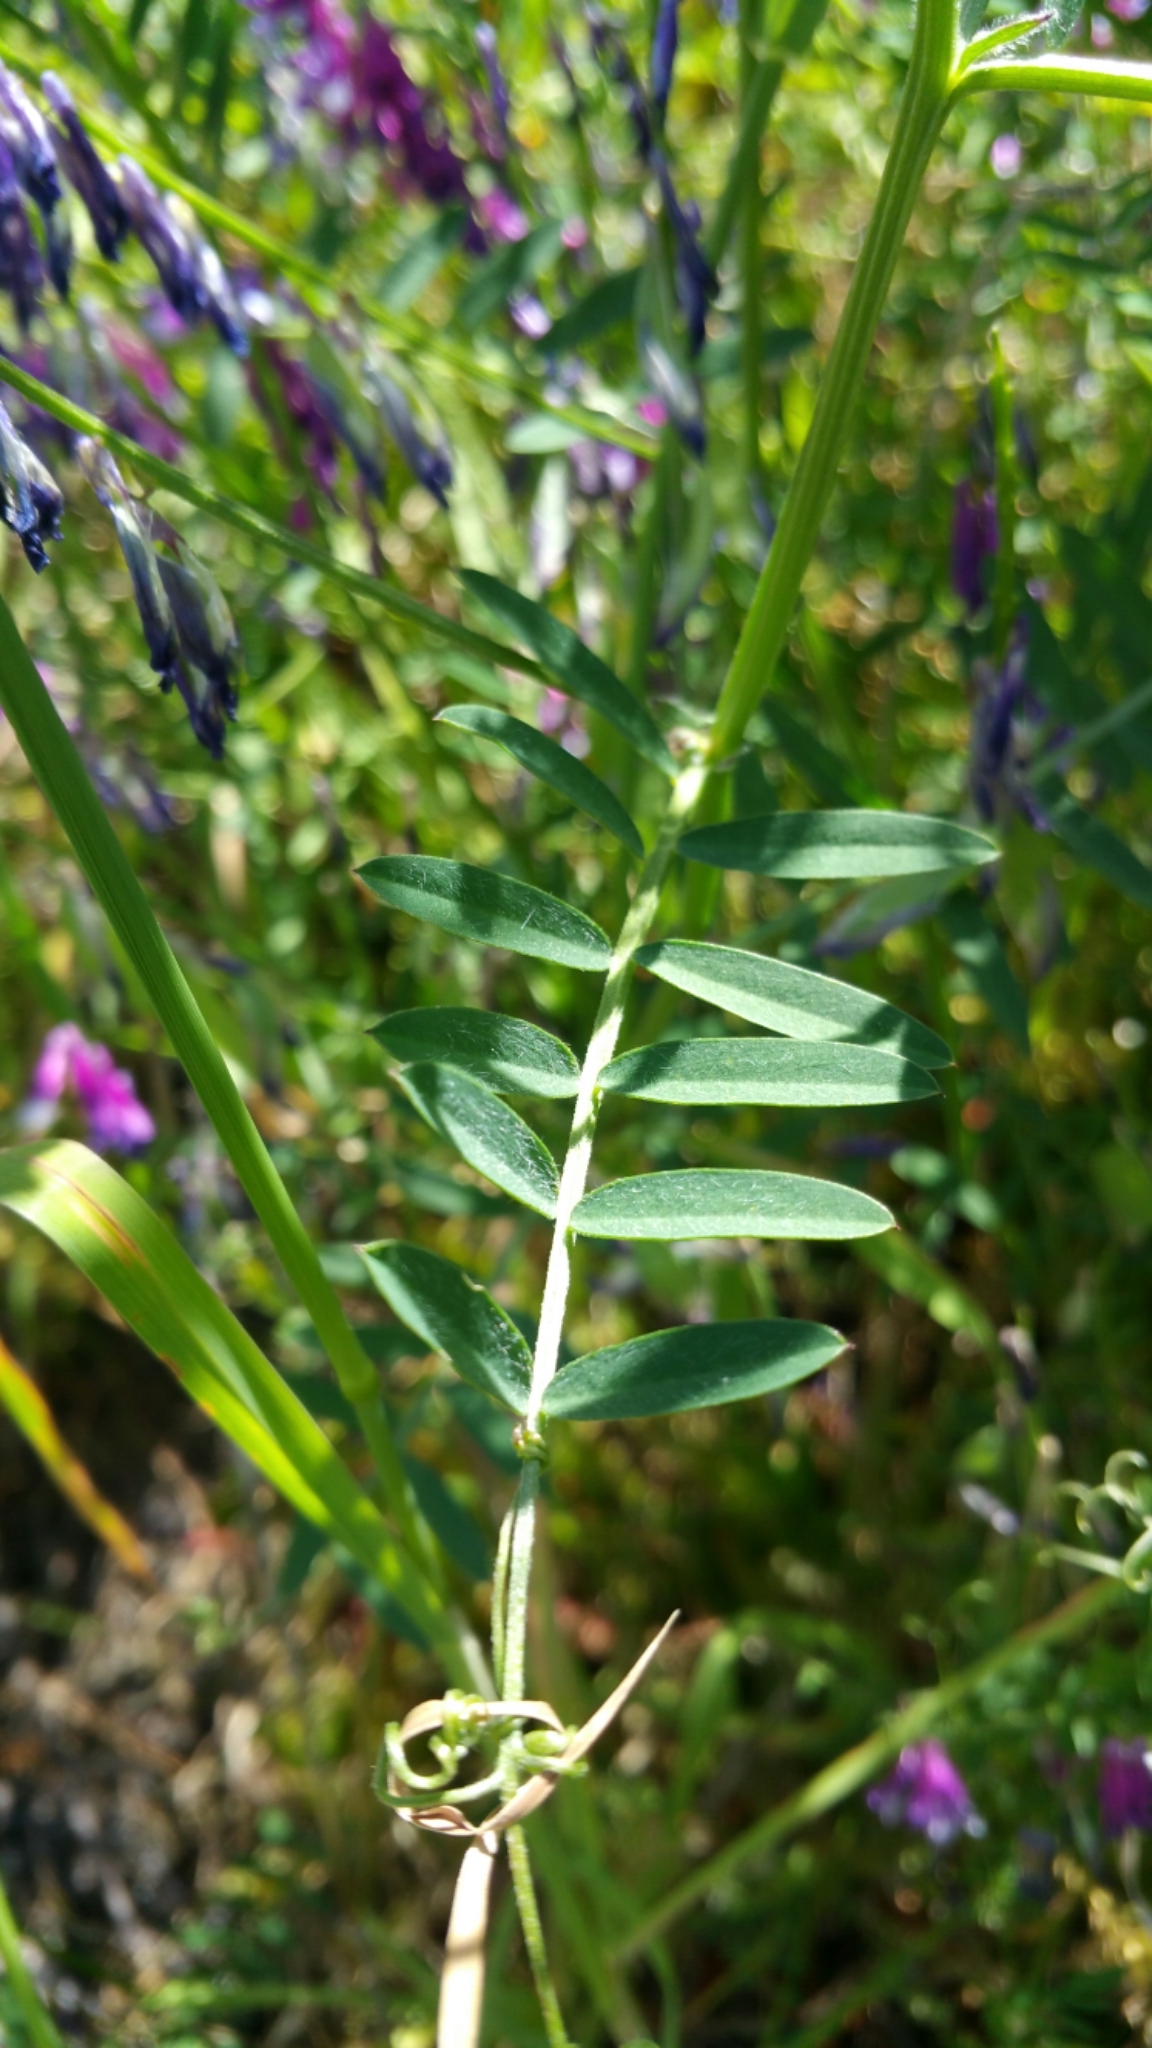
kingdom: Plantae
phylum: Tracheophyta
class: Magnoliopsida
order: Fabales
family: Fabaceae
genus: Vicia
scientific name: Vicia villosa
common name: Fodder vetch
